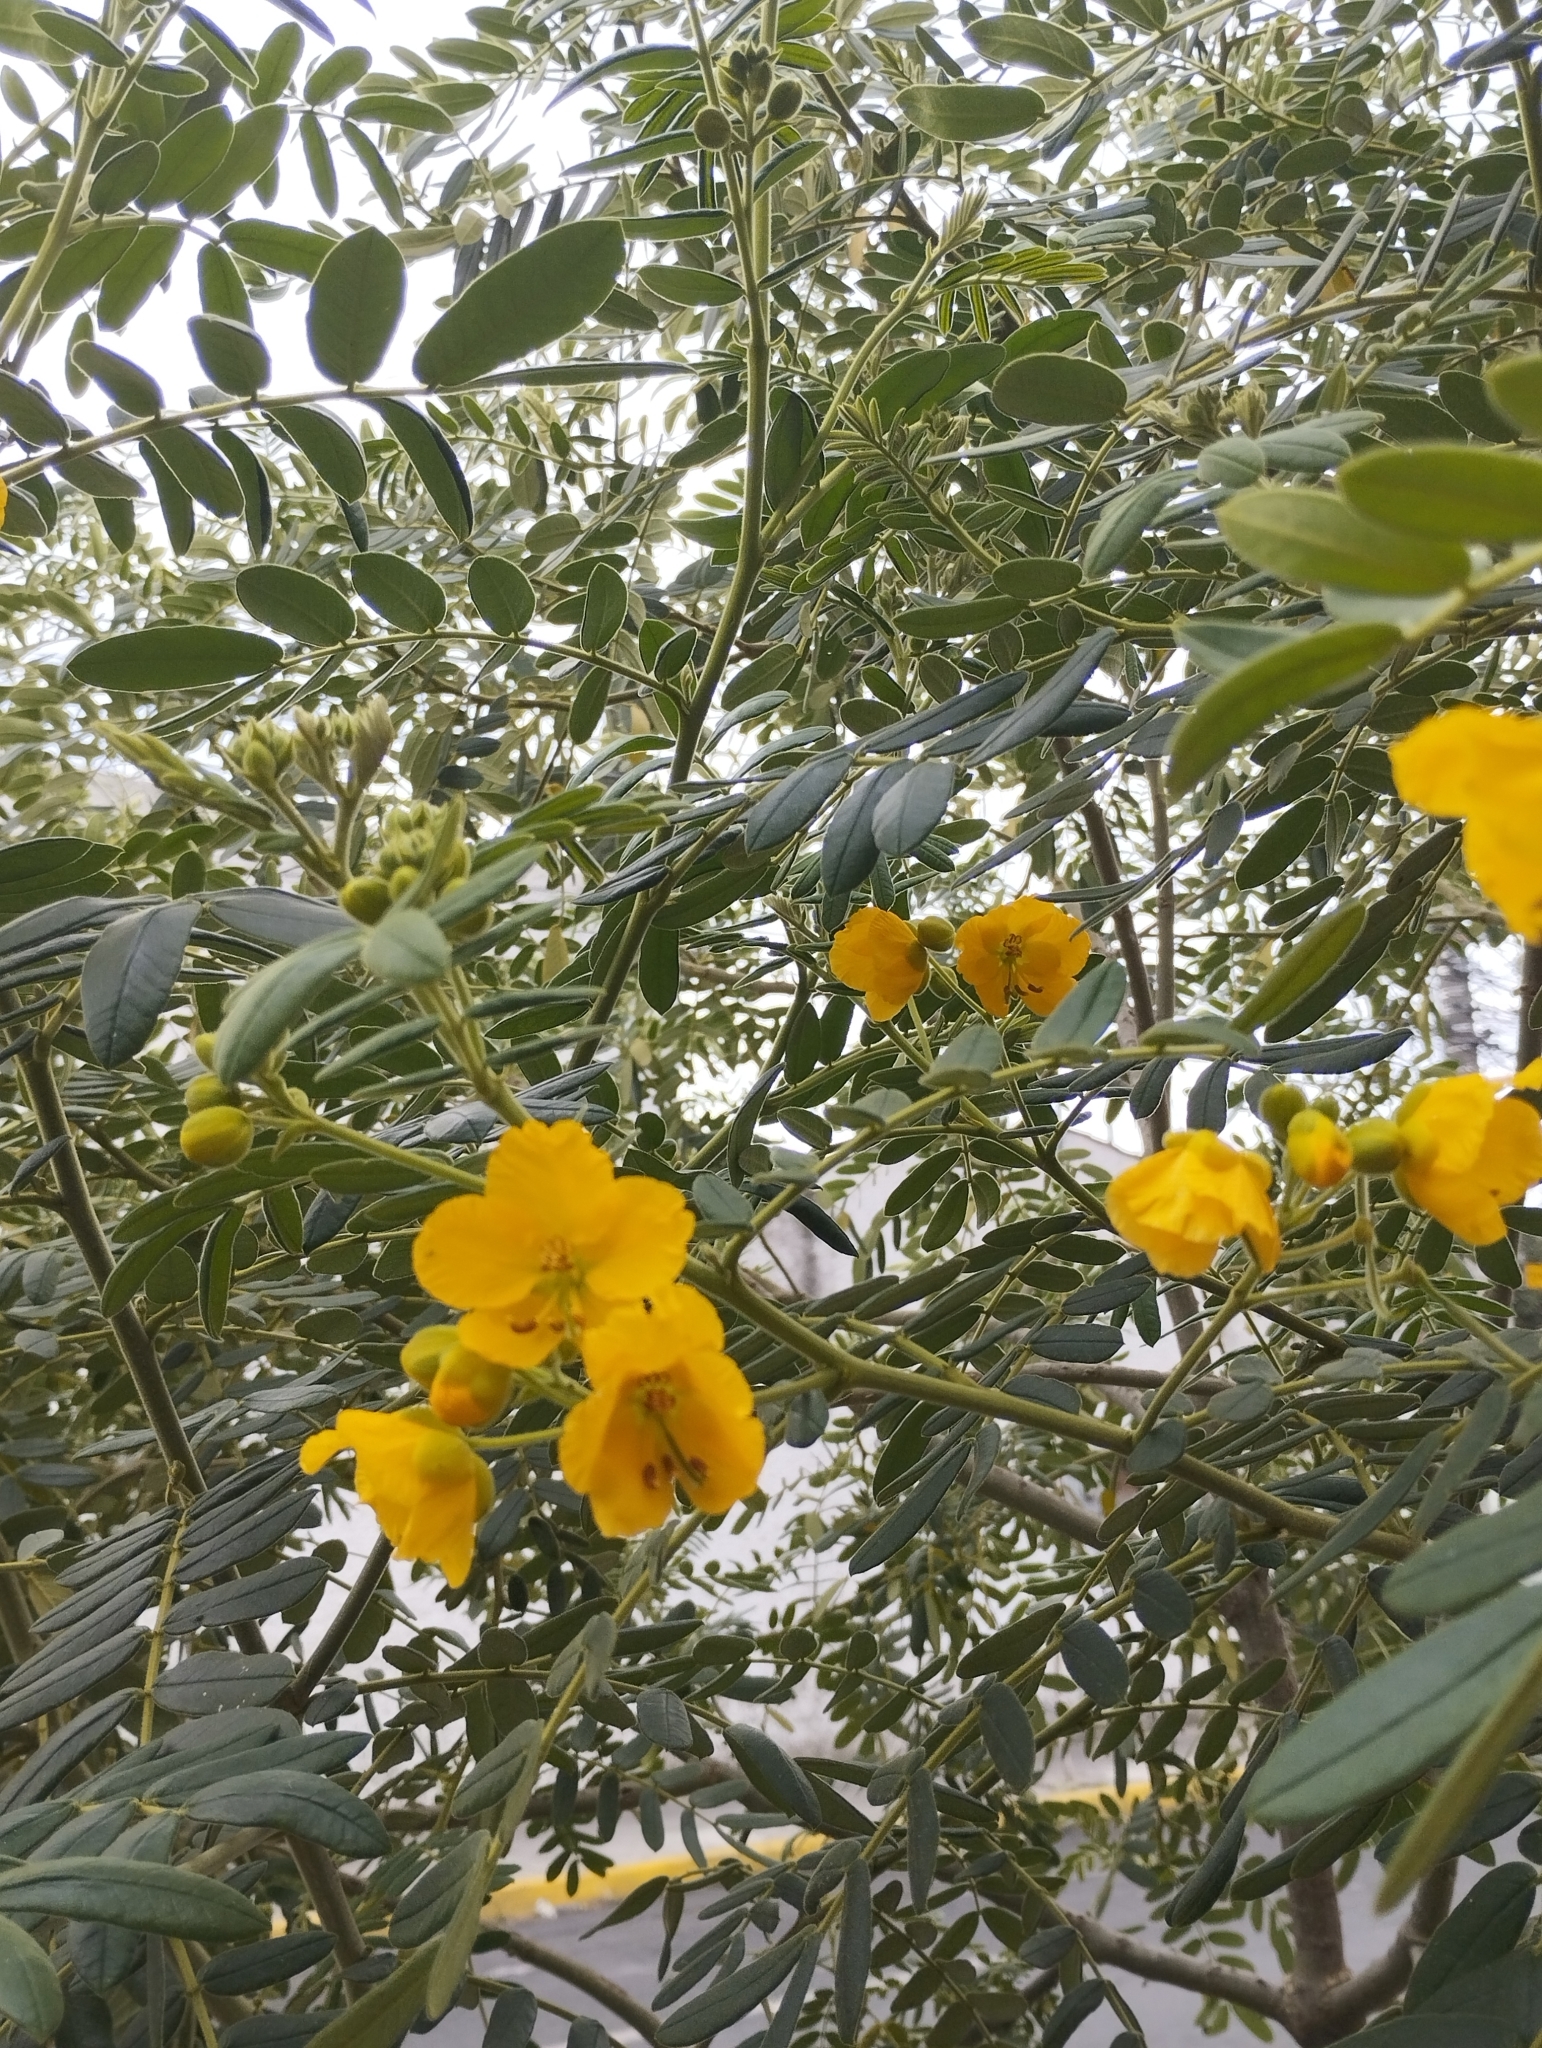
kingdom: Plantae
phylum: Tracheophyta
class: Magnoliopsida
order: Fabales
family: Fabaceae
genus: Senna
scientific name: Senna multiglandulosa
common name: Glandular senna
